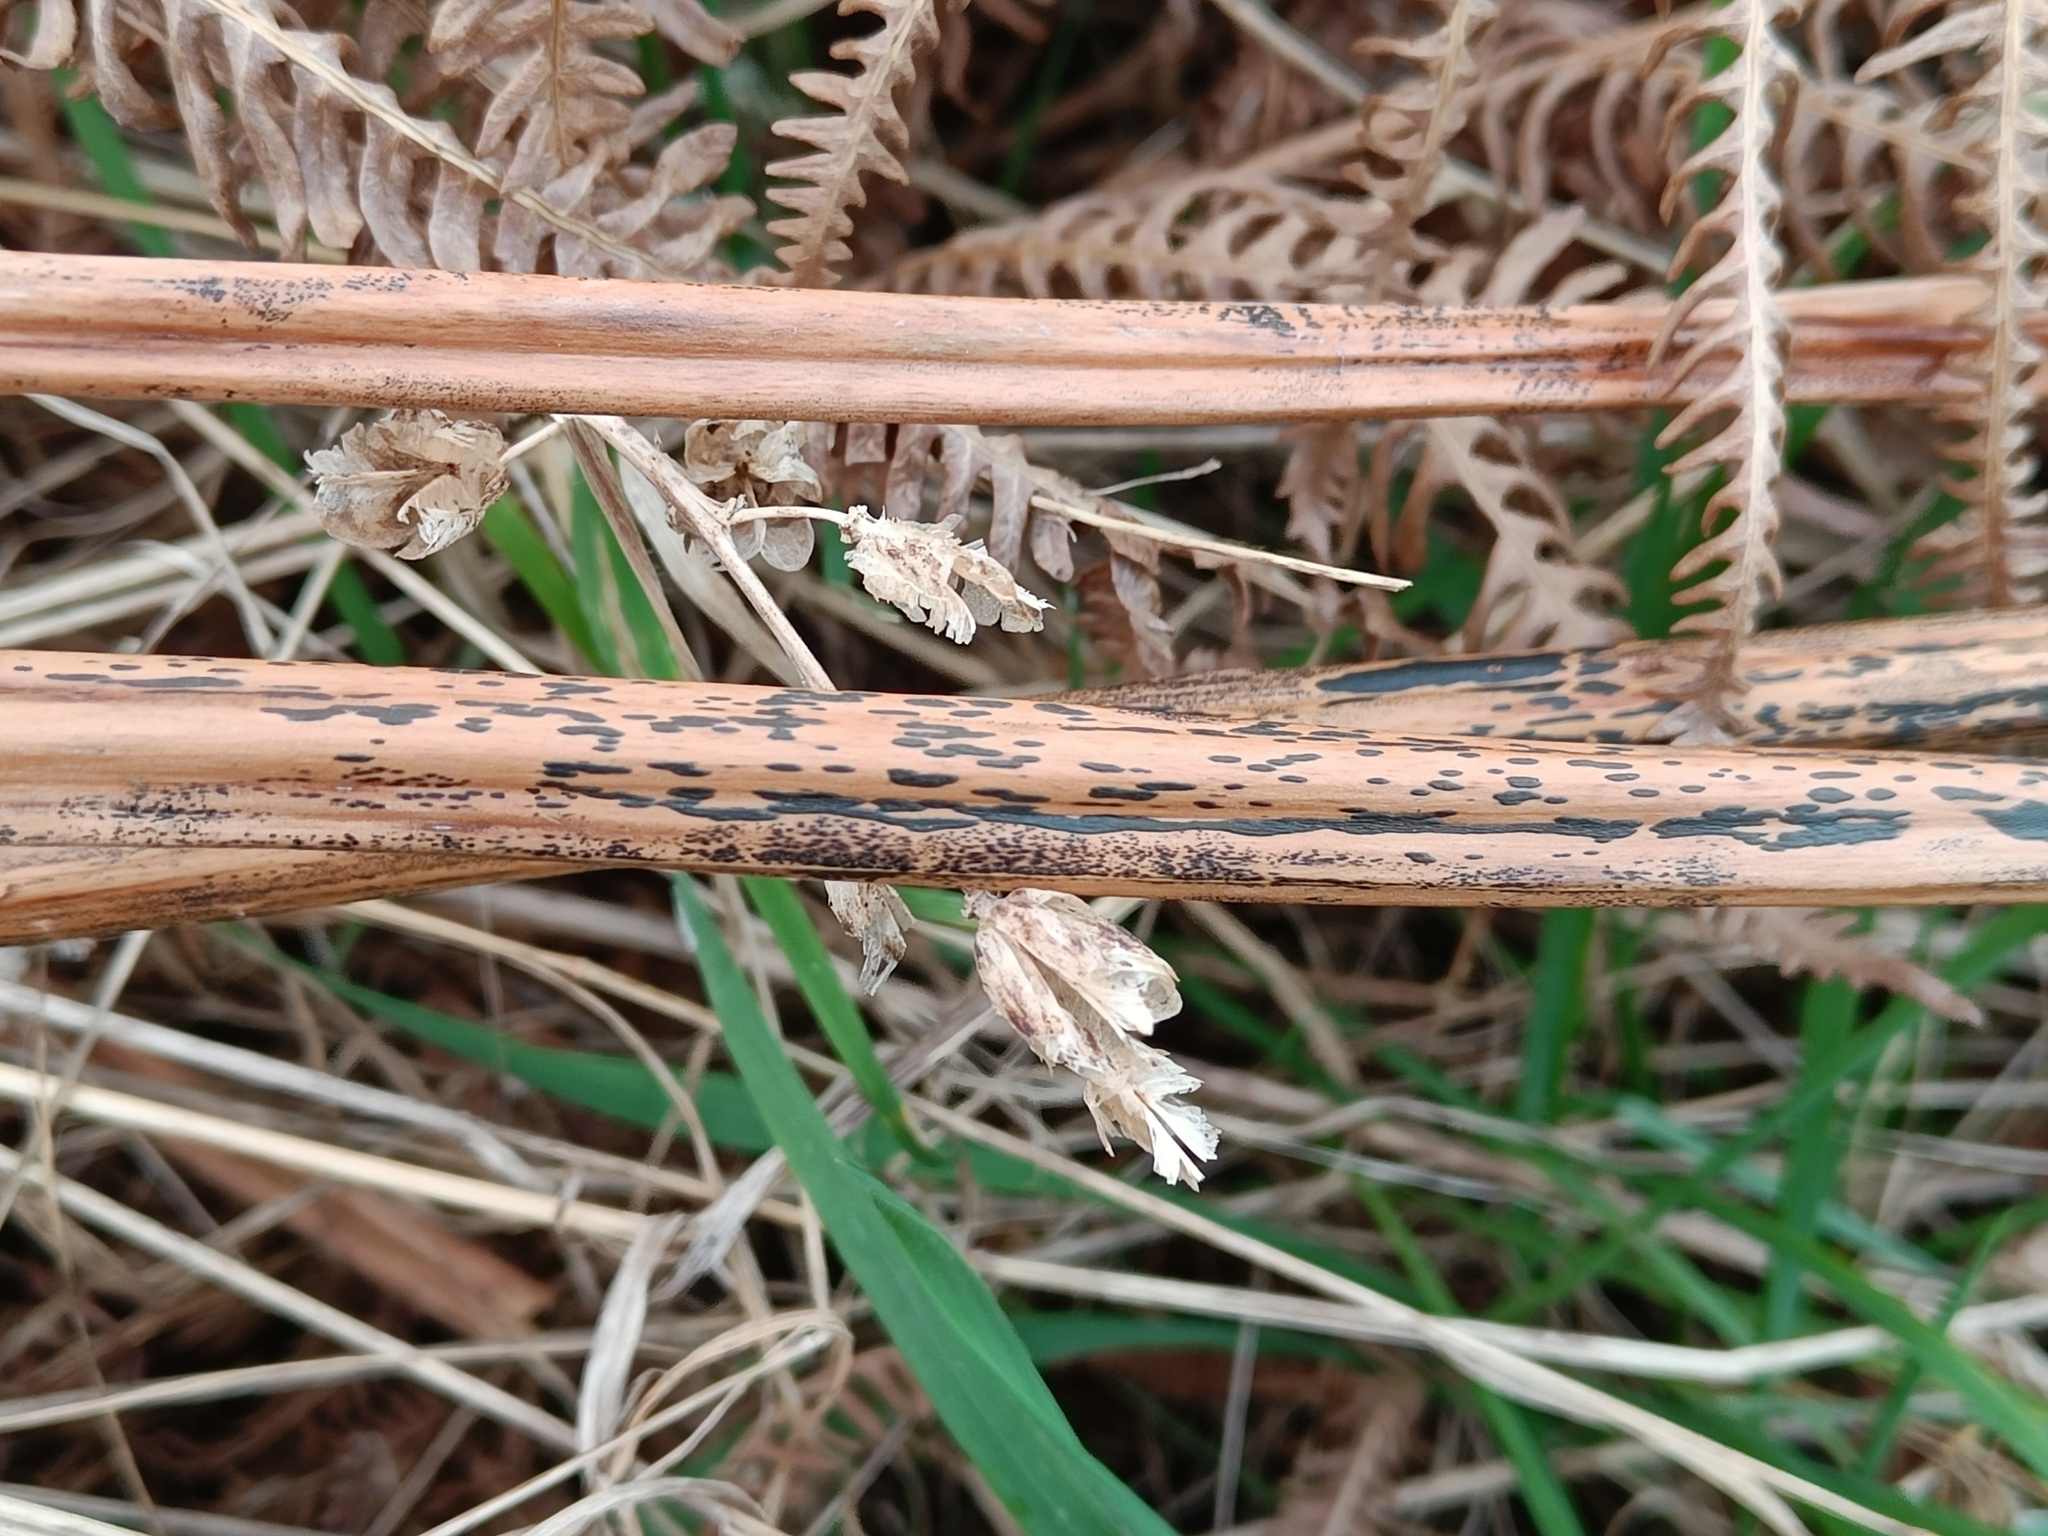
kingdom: Fungi
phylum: Ascomycota
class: Dothideomycetes
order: Pleosporales
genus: Rhopographus
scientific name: Rhopographus filicinus
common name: Bracken map
